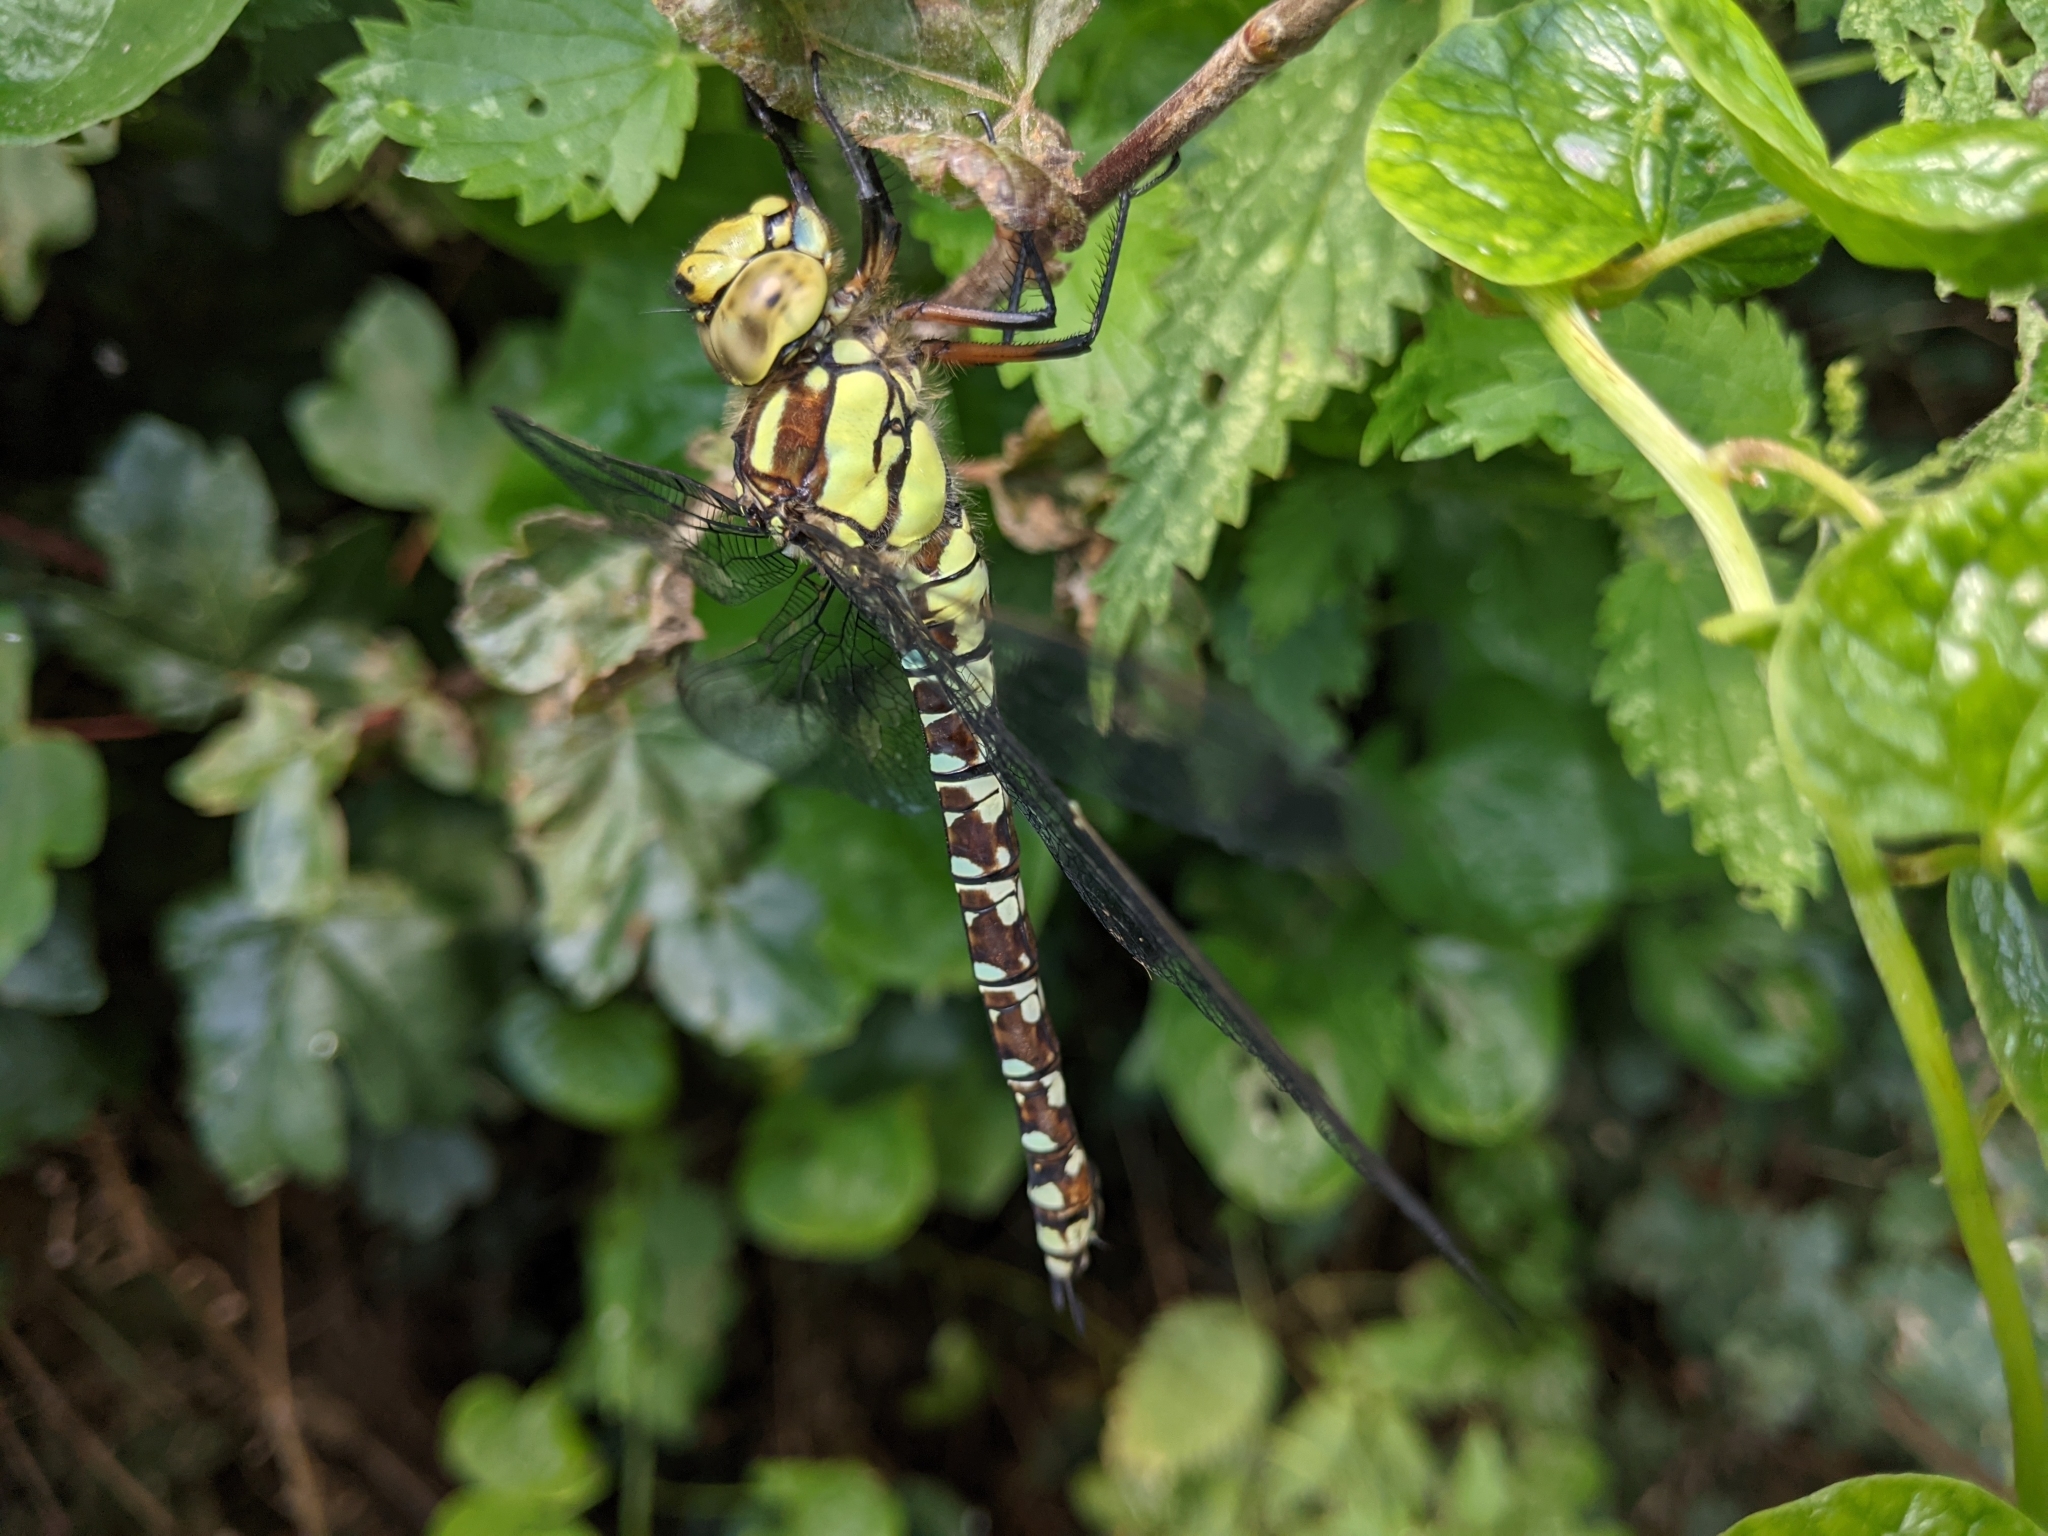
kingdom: Animalia
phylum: Arthropoda
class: Insecta
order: Odonata
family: Aeshnidae
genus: Aeshna
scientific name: Aeshna cyanea
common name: Southern hawker
